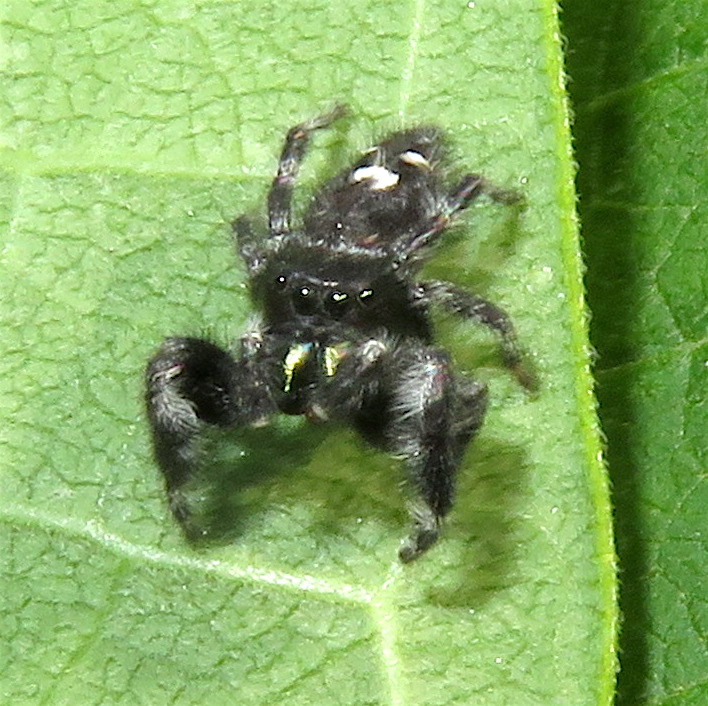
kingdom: Animalia
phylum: Arthropoda
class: Arachnida
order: Araneae
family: Salticidae
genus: Phidippus
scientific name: Phidippus audax
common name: Bold jumper
